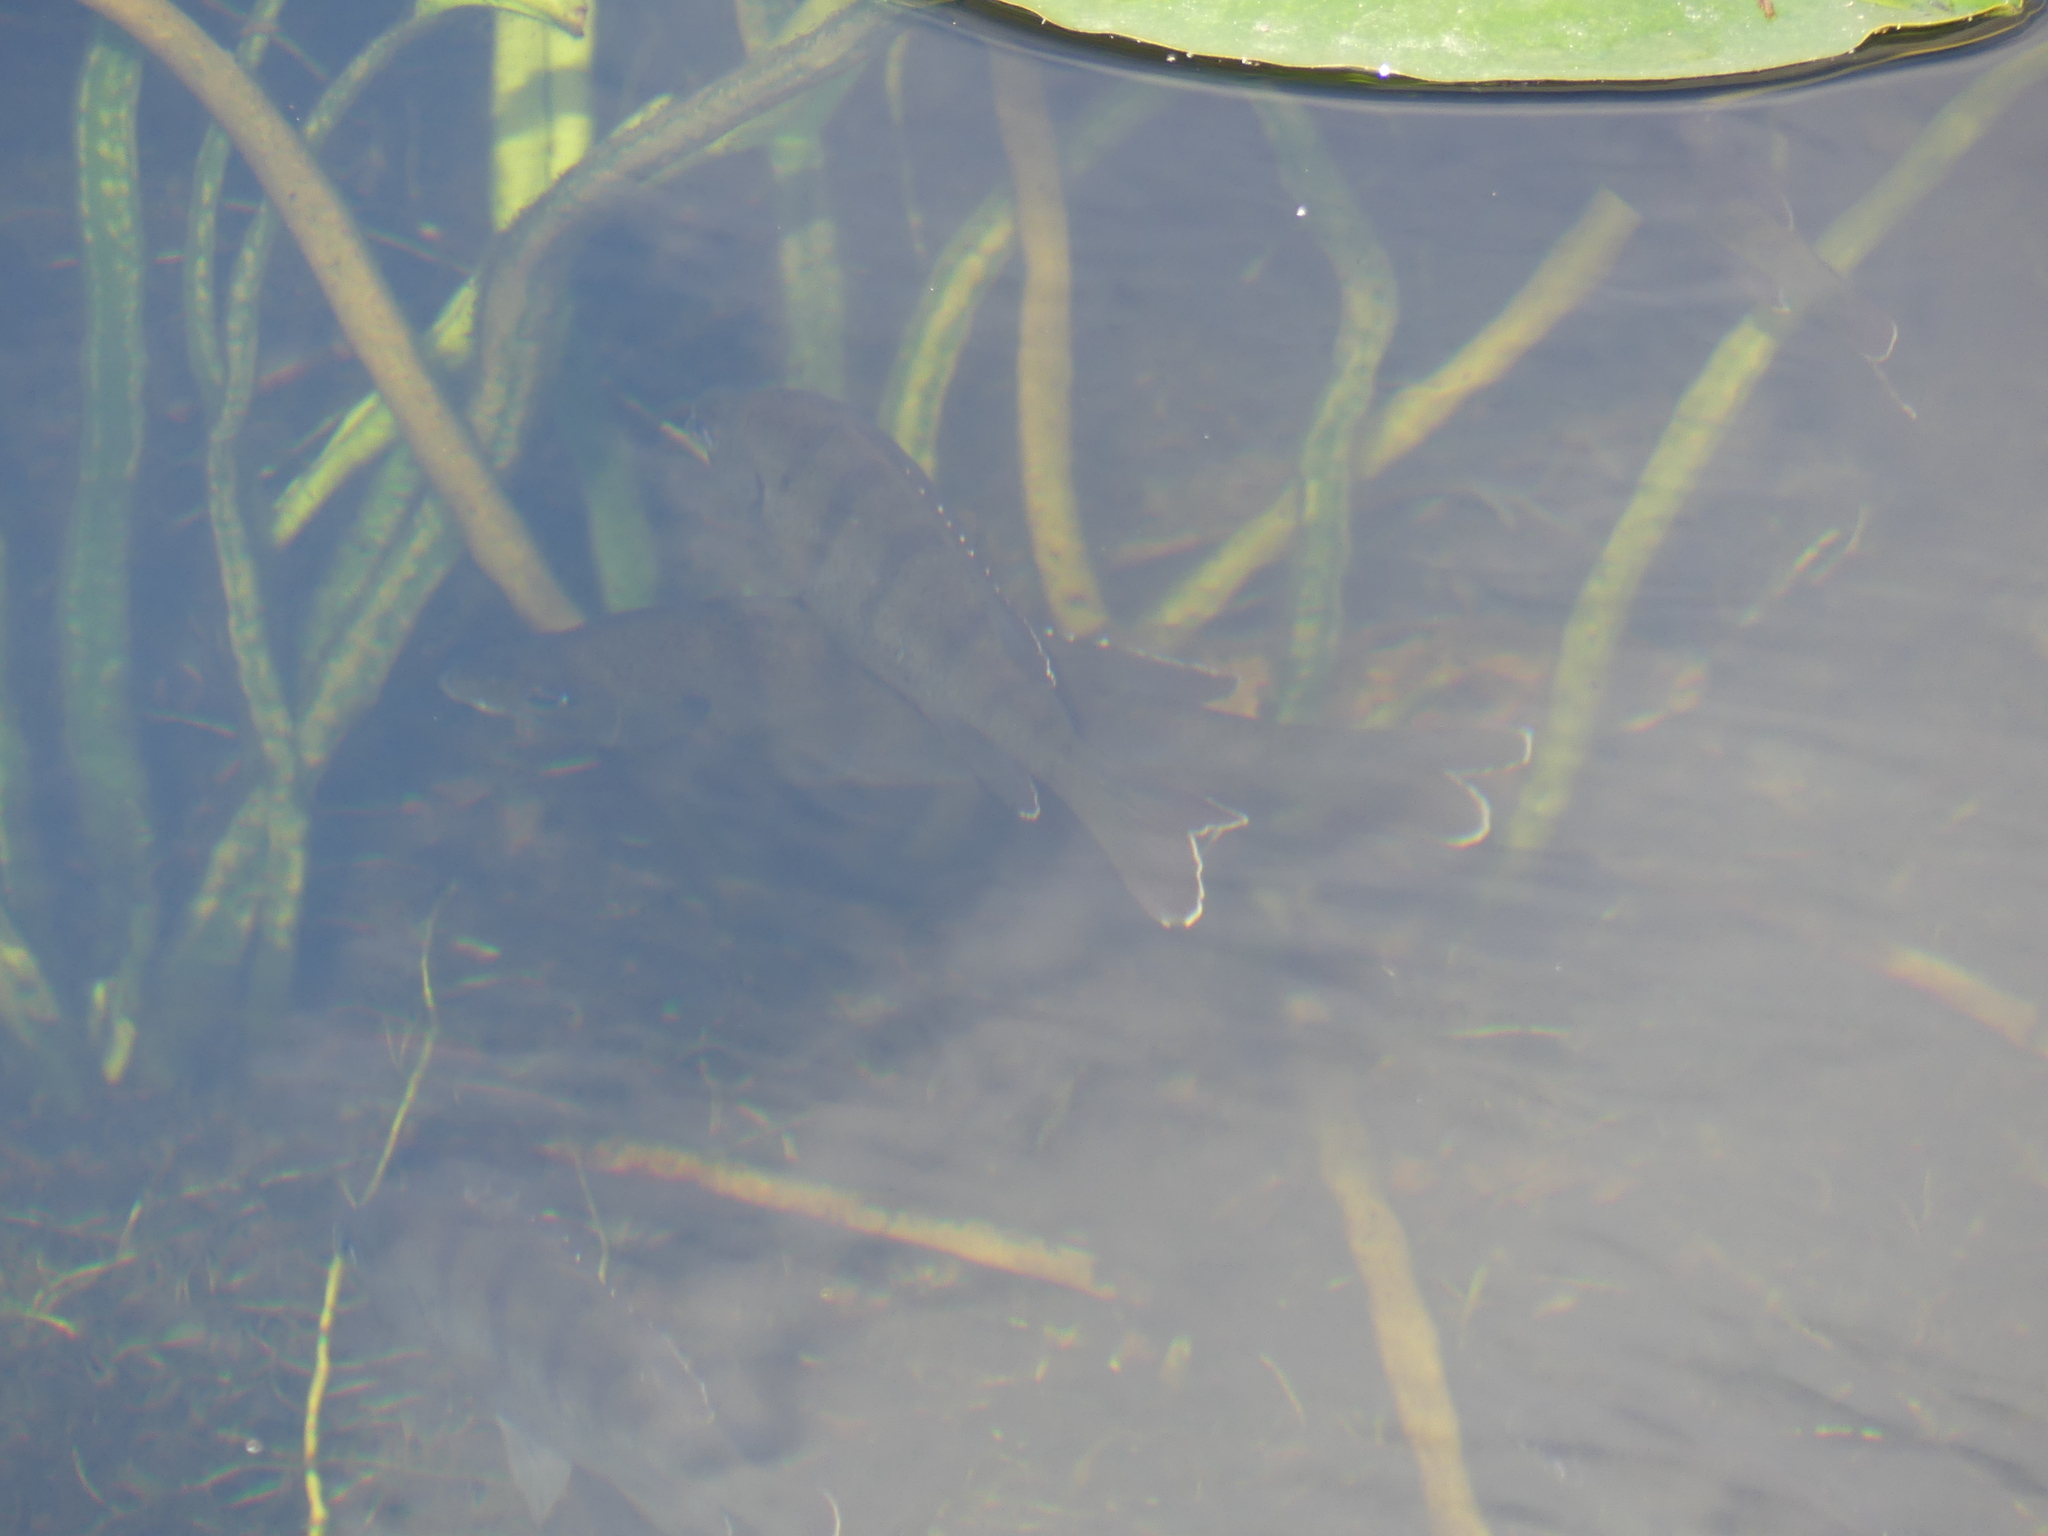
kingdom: Animalia
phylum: Chordata
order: Perciformes
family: Centrarchidae
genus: Lepomis
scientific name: Lepomis macrochirus
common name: Bluegill
